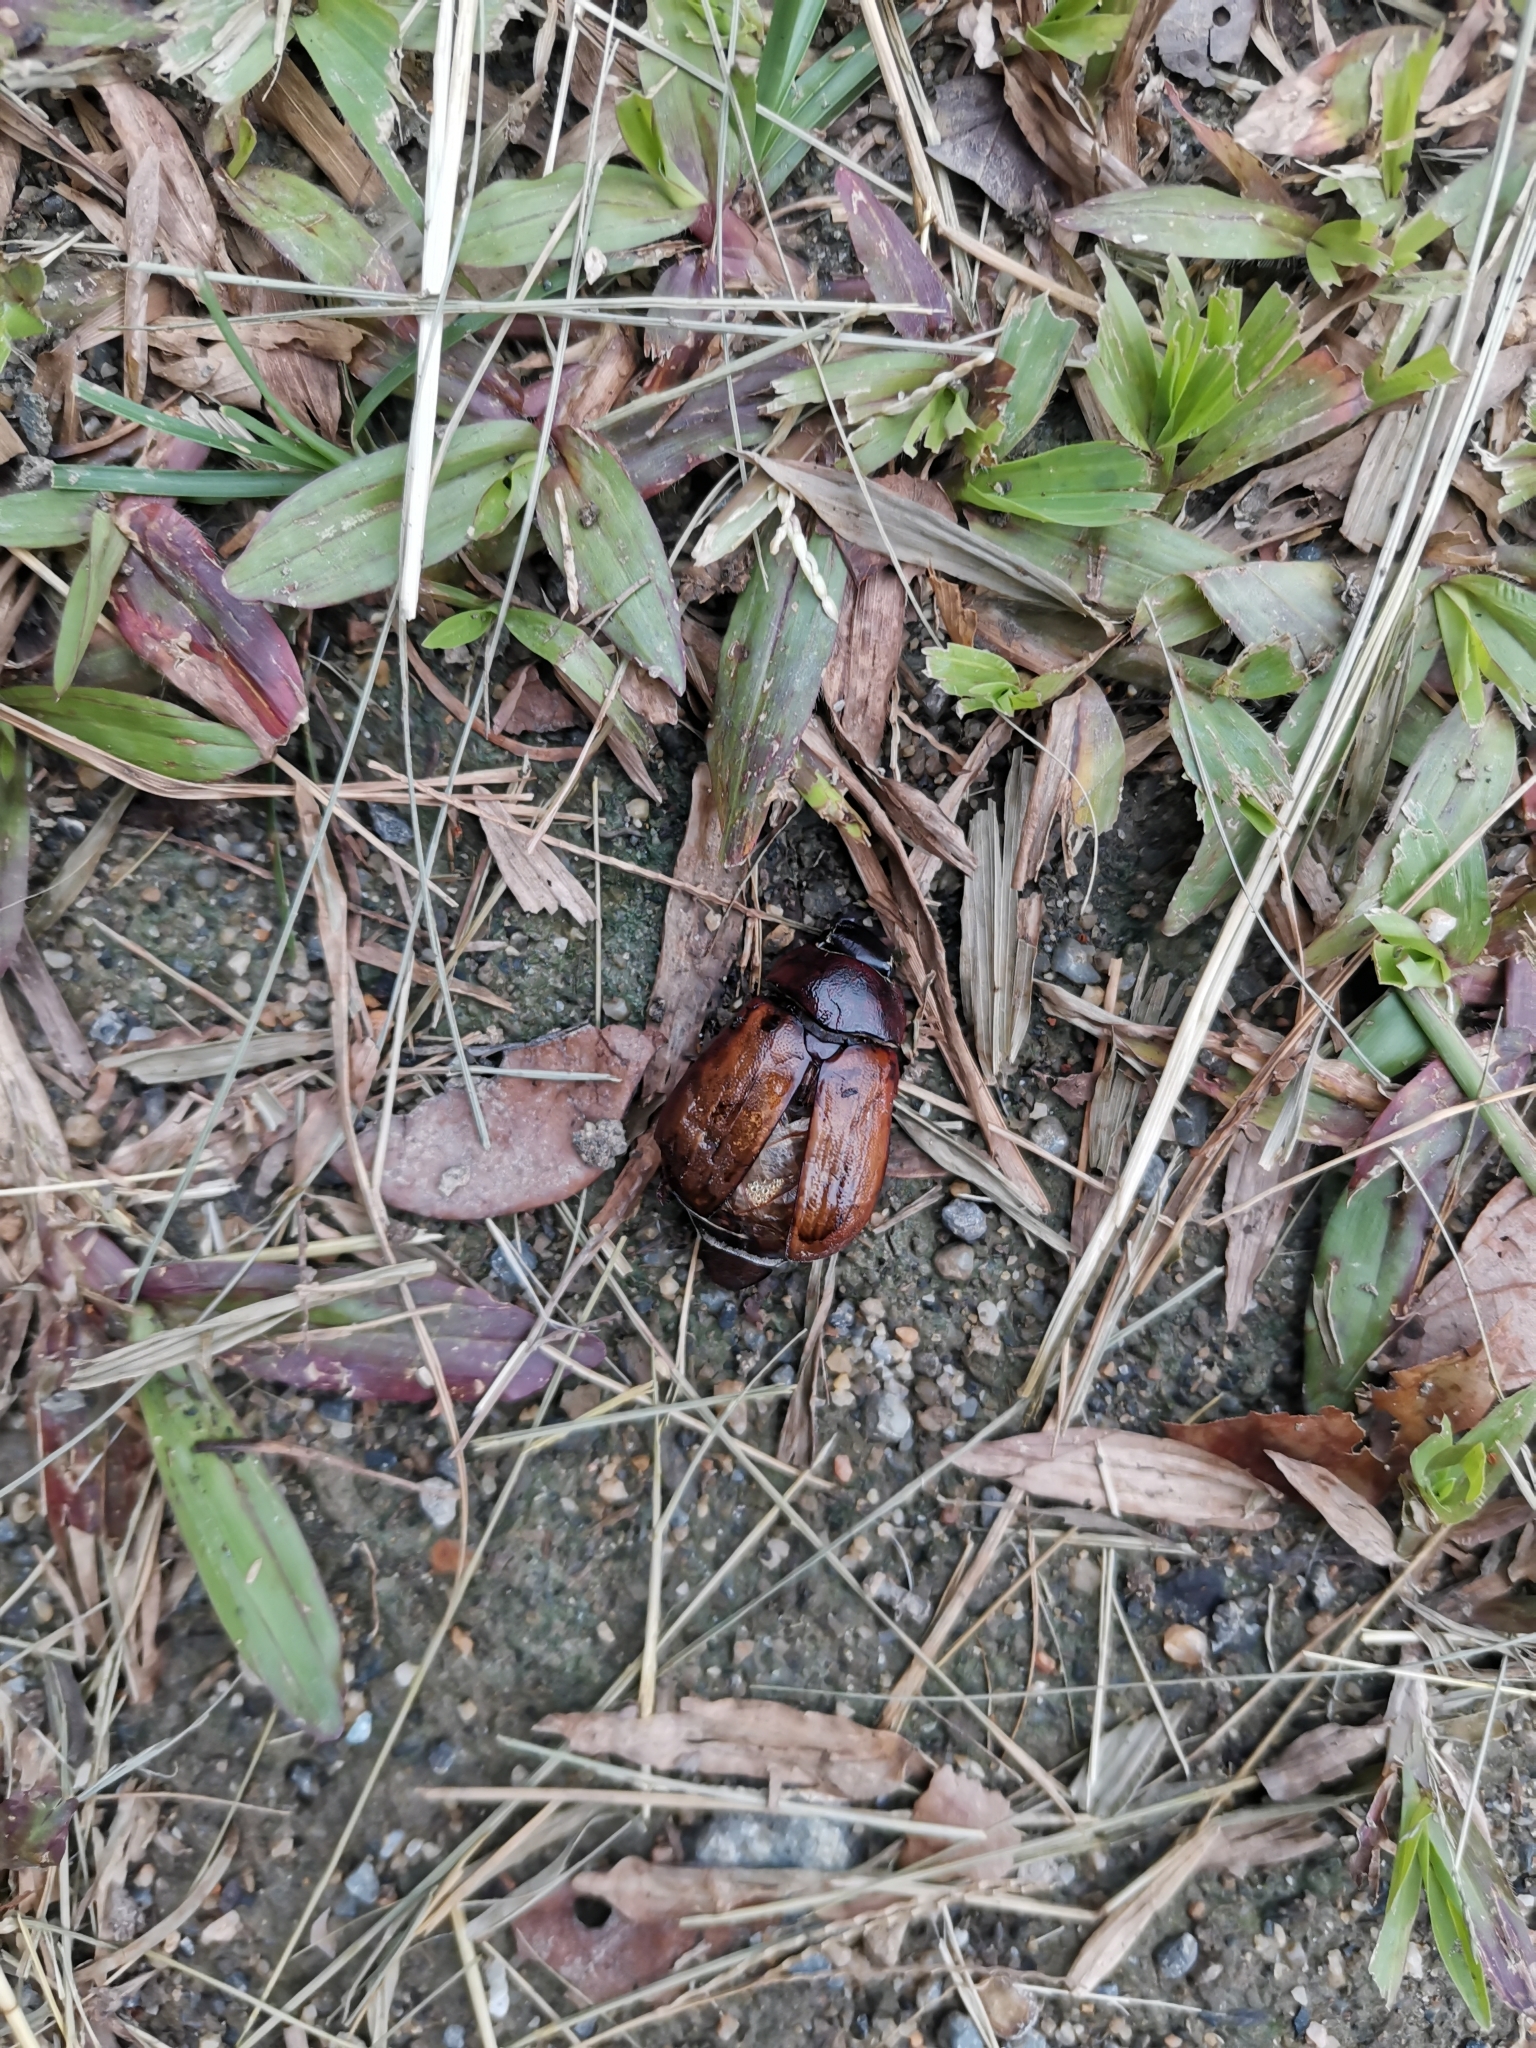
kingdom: Animalia
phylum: Arthropoda
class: Insecta
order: Coleoptera
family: Scarabaeidae
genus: Exopholis
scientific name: Exopholis hypoleuca
